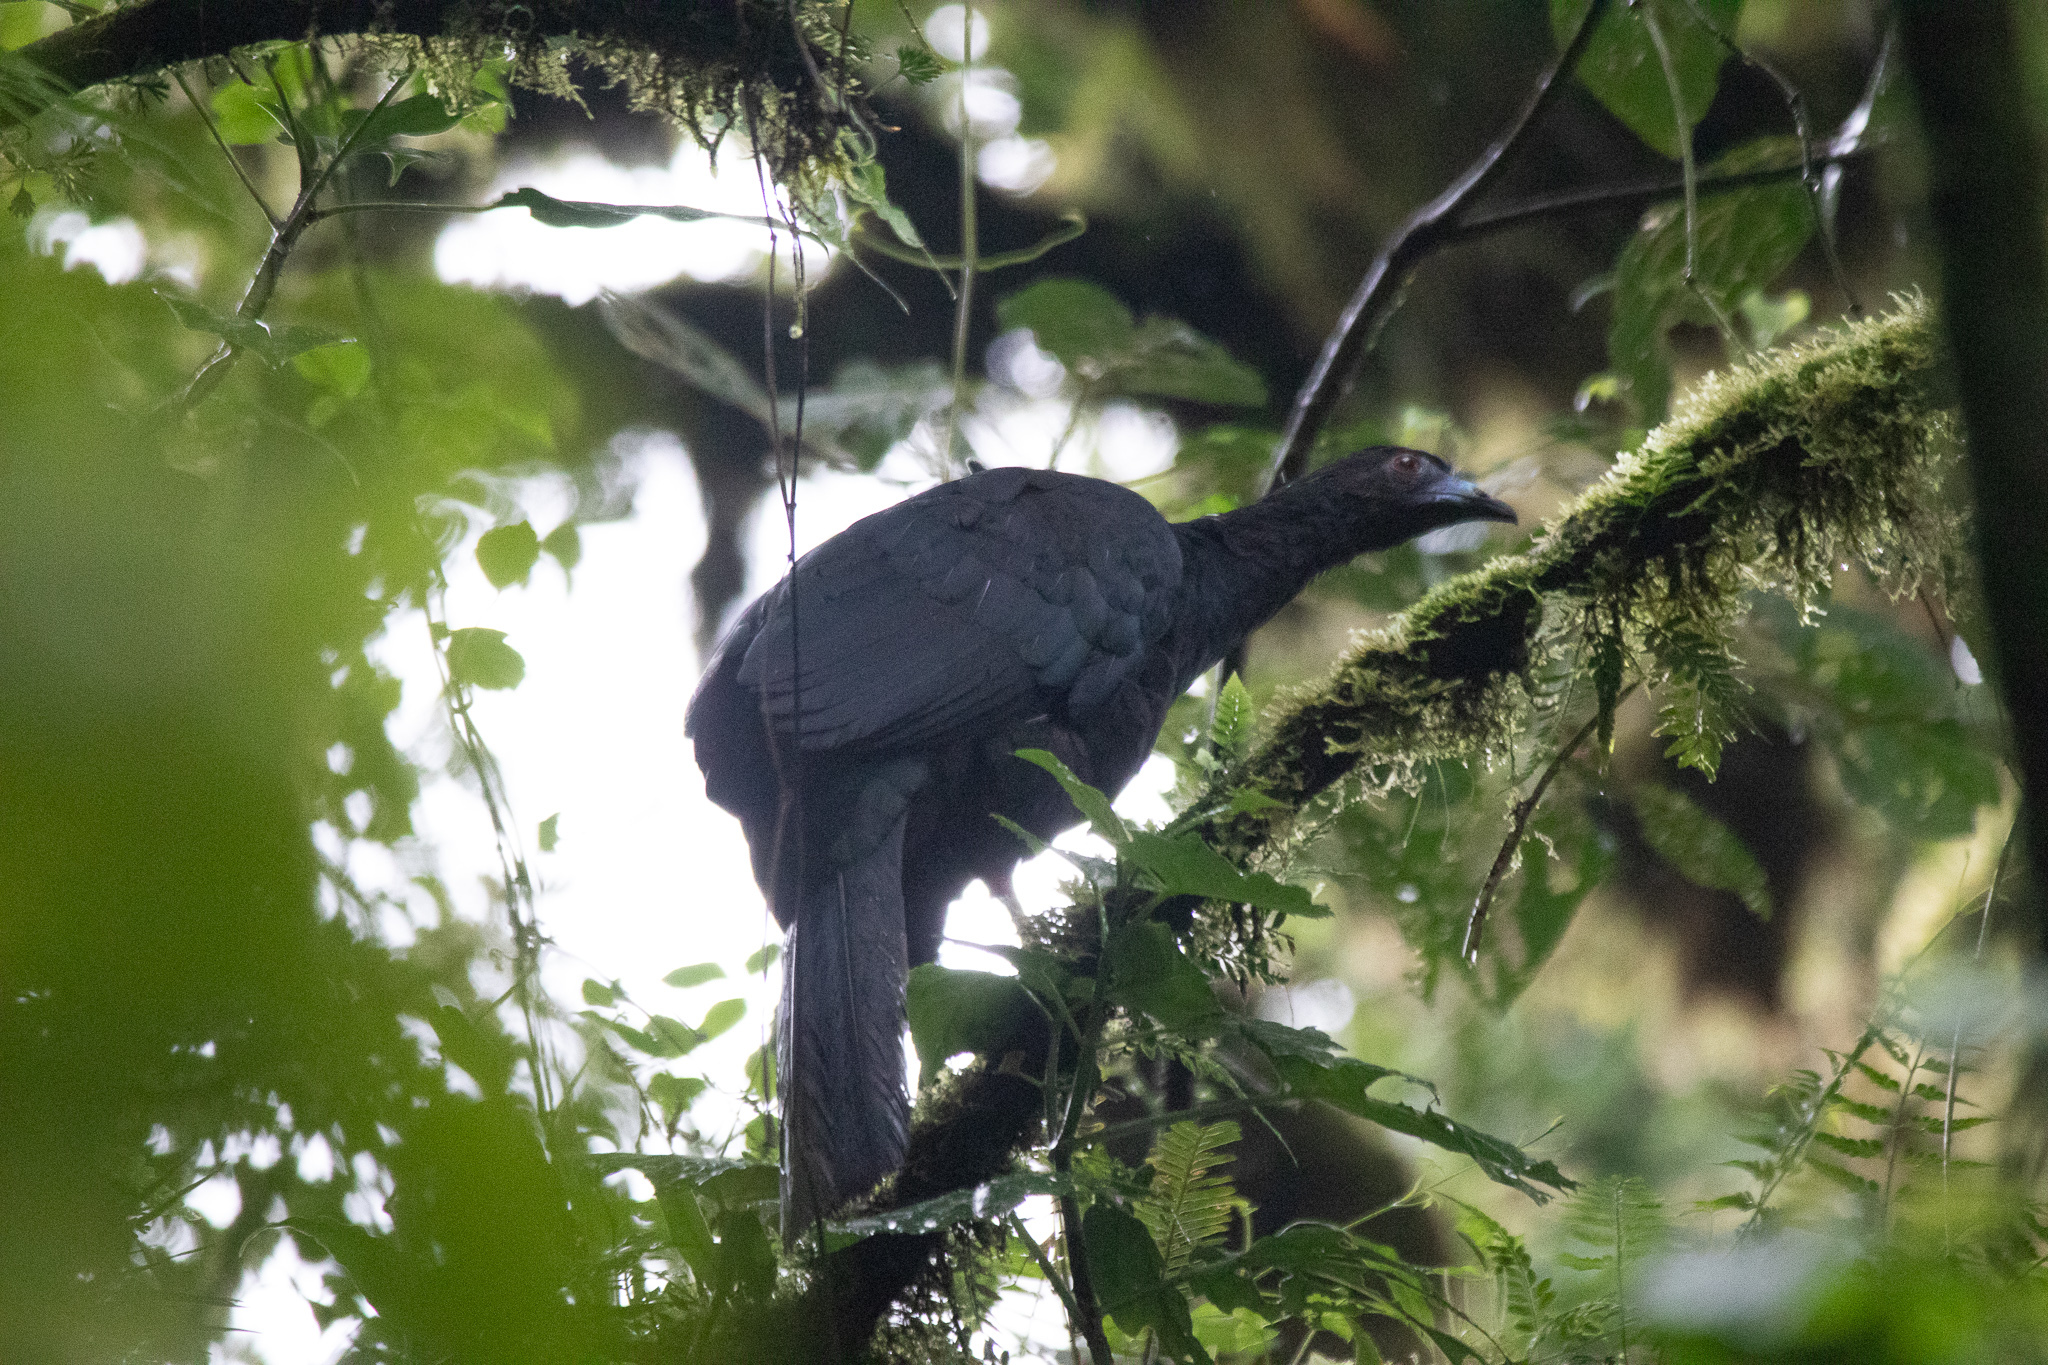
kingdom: Animalia
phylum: Chordata
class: Aves
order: Galliformes
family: Cracidae
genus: Chamaepetes
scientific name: Chamaepetes unicolor
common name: Black guan
